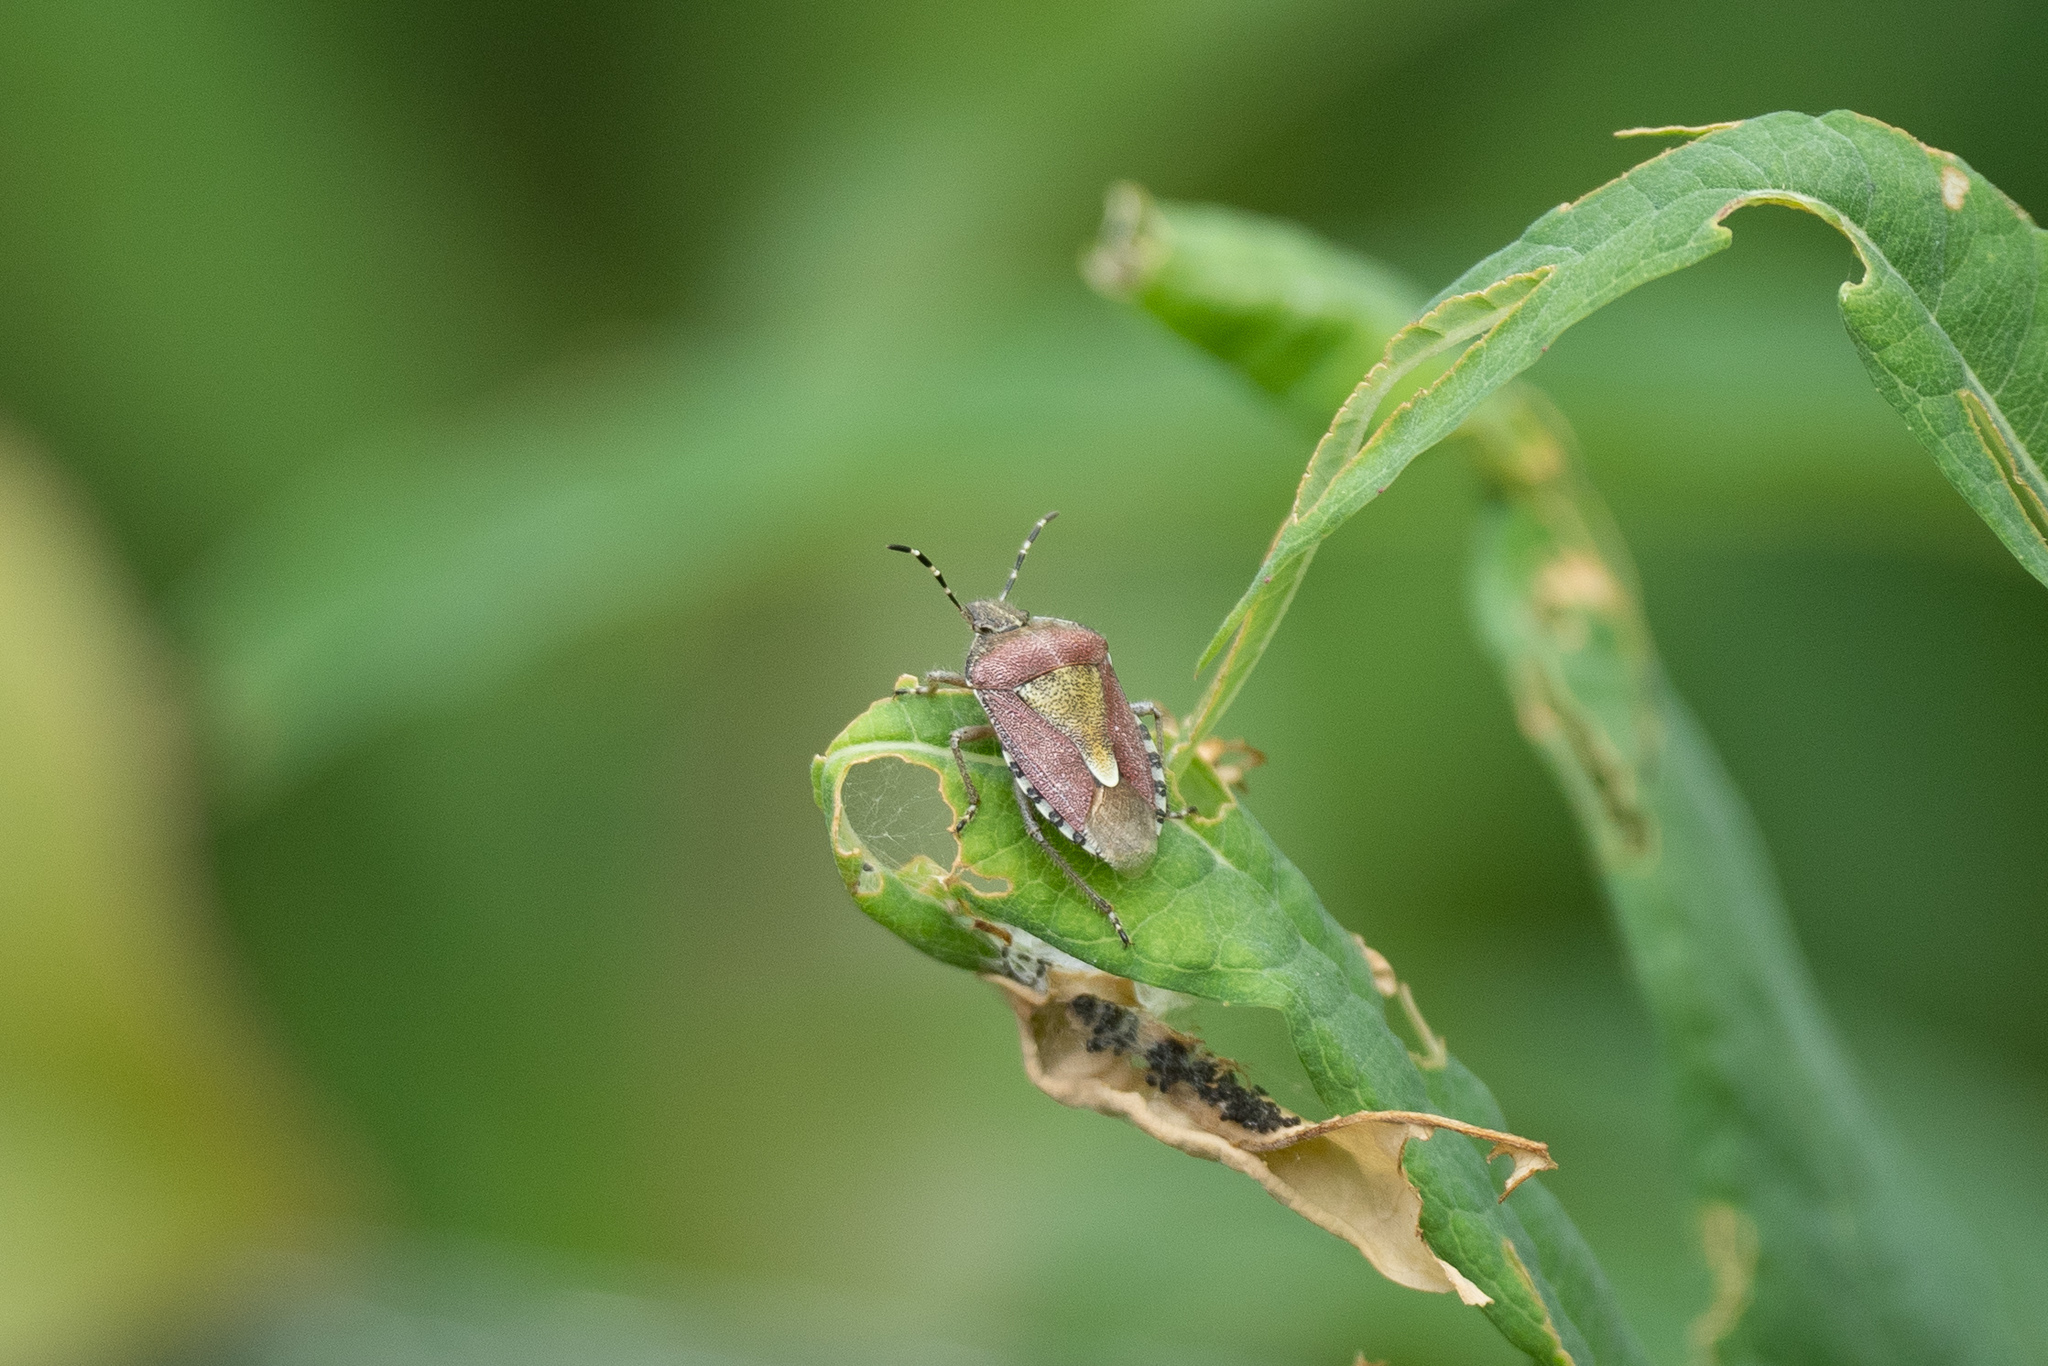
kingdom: Animalia
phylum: Arthropoda
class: Insecta
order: Hemiptera
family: Pentatomidae
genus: Dolycoris
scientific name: Dolycoris baccarum
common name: Sloe bug
